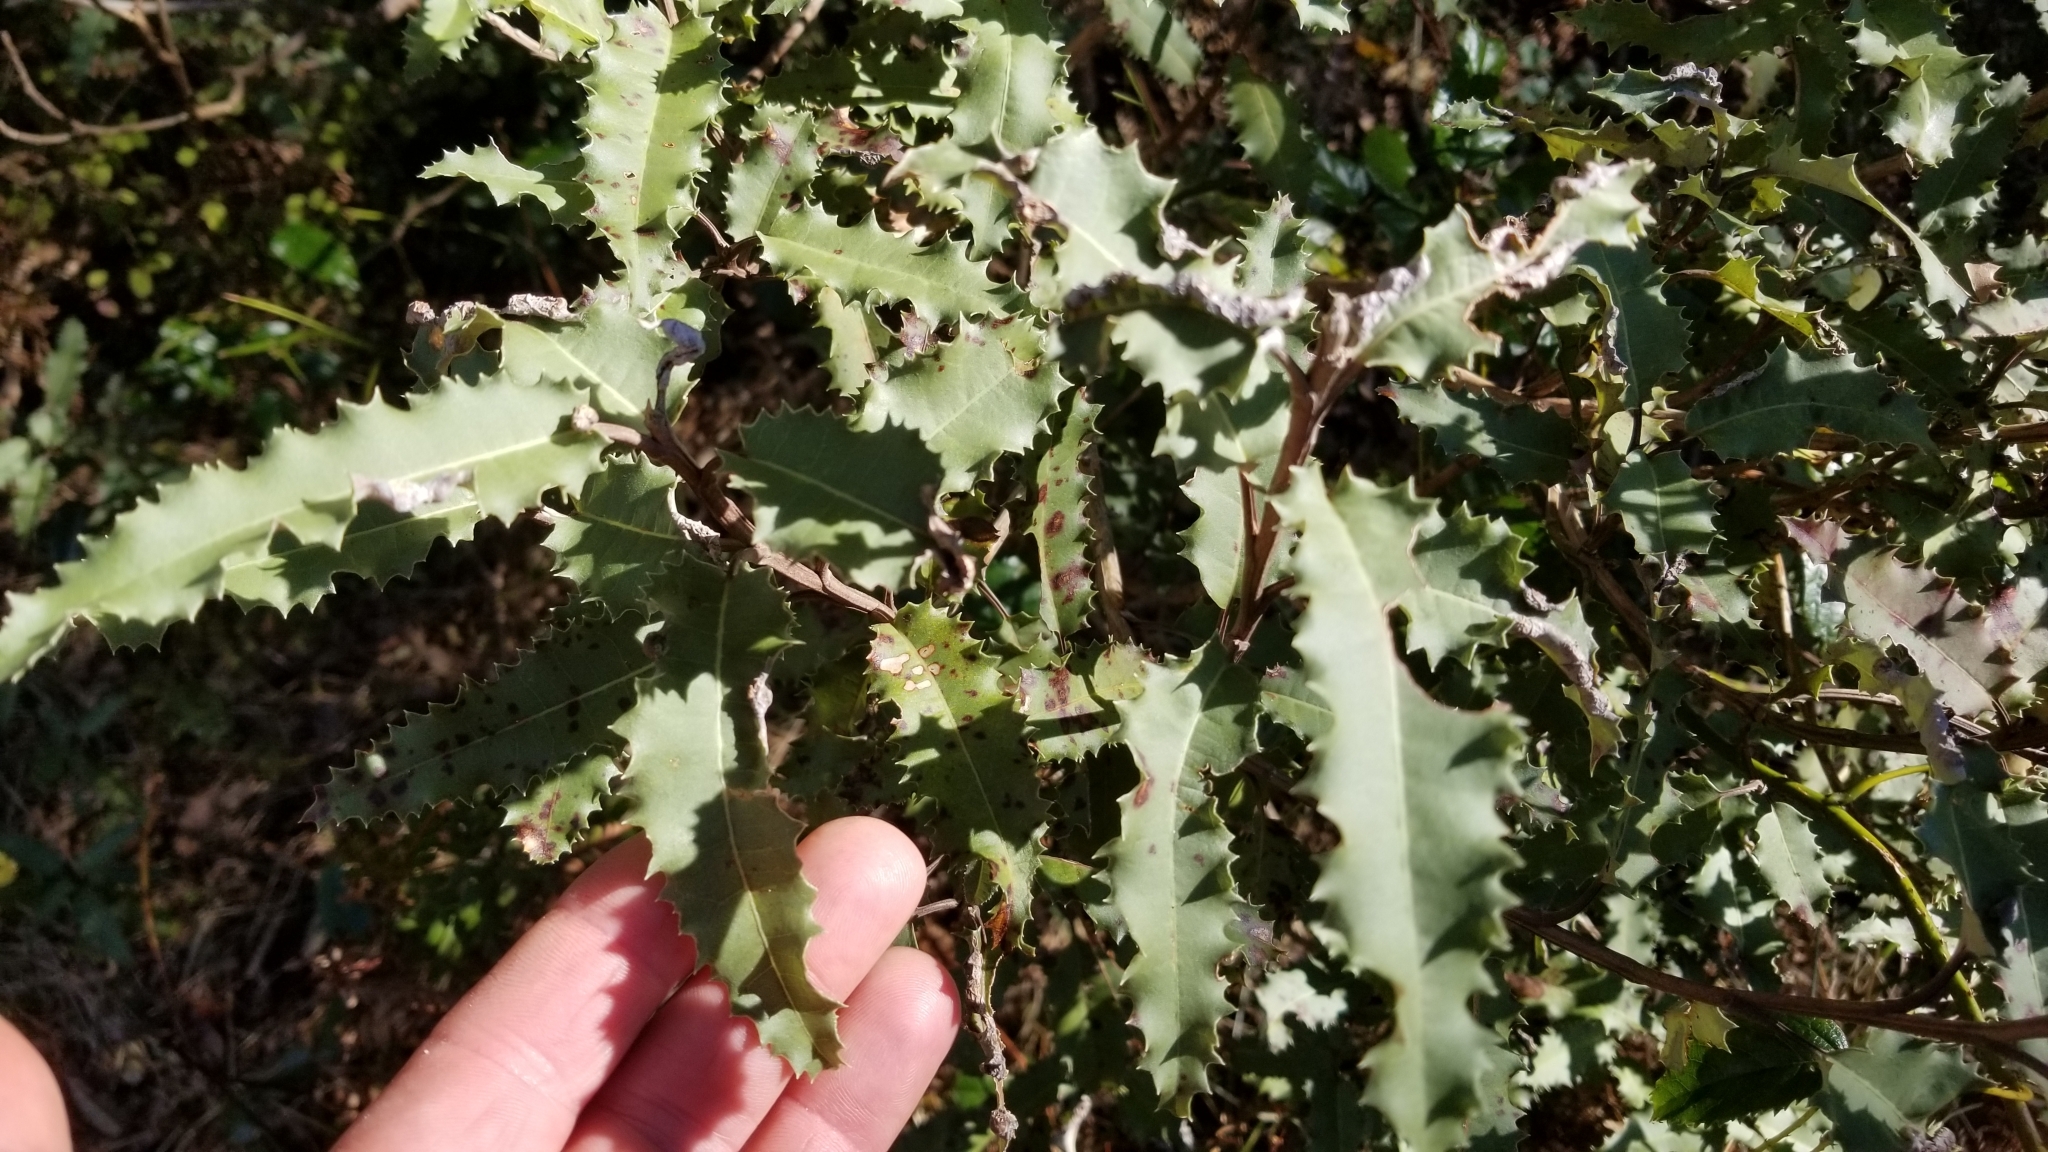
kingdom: Plantae
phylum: Tracheophyta
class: Magnoliopsida
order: Asterales
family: Asteraceae
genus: Olearia
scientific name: Olearia ilicifolia
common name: Maori-holly
